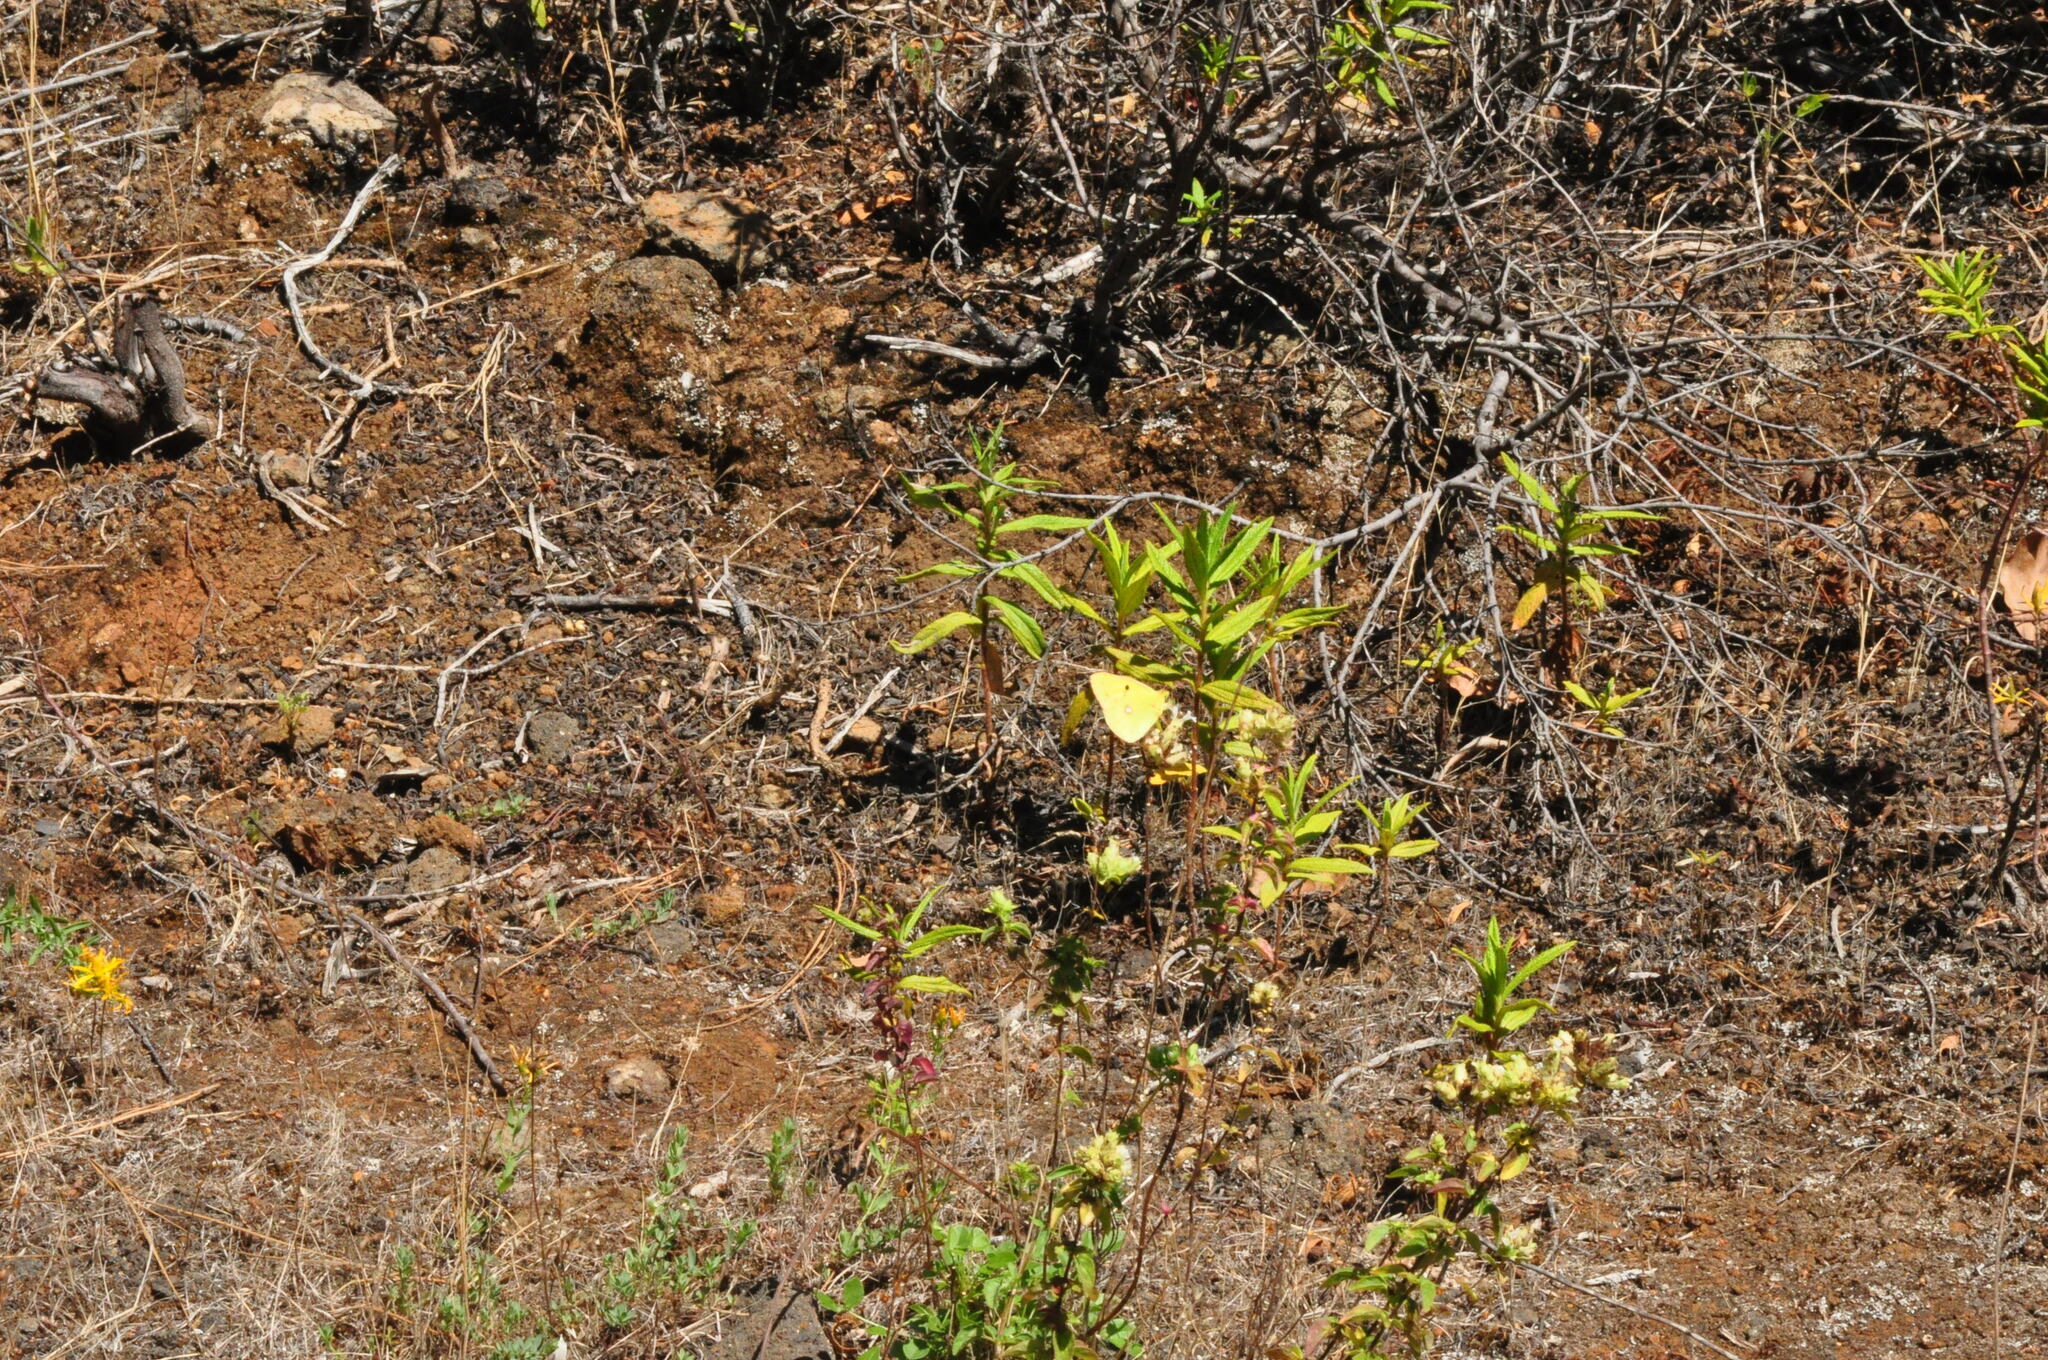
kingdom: Animalia
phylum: Arthropoda
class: Insecta
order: Lepidoptera
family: Pieridae
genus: Colias
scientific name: Colias croceus
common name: Clouded yellow
